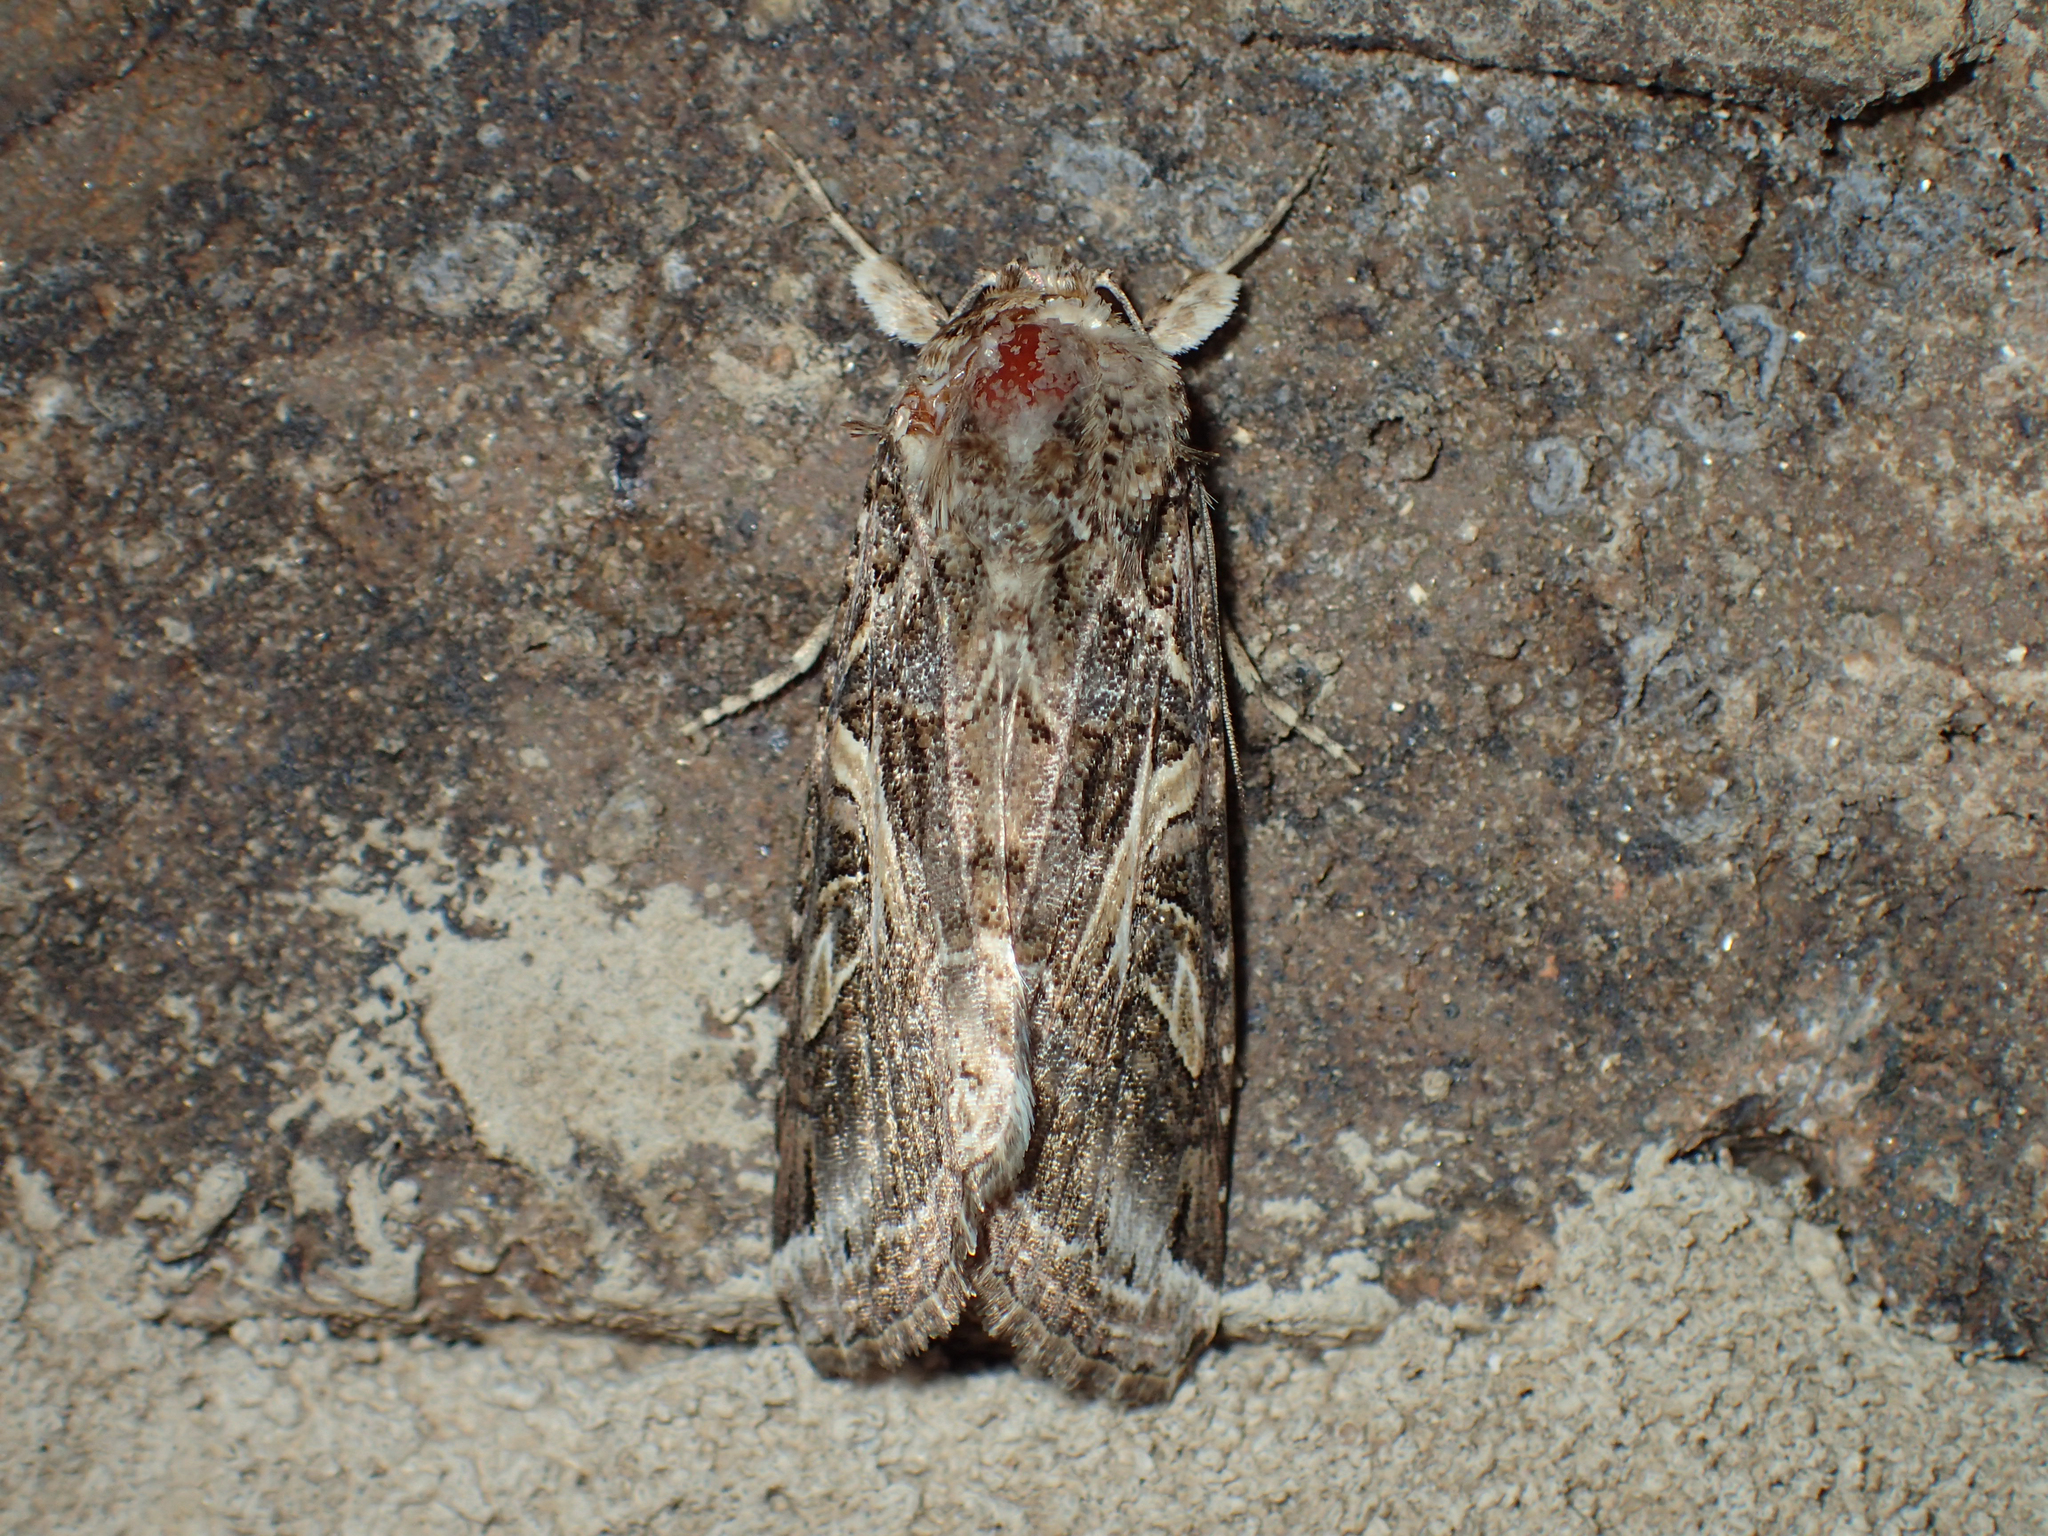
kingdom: Animalia
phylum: Arthropoda
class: Insecta
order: Lepidoptera
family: Noctuidae
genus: Spodoptera
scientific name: Spodoptera ornithogalli
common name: Yellow-striped armyworm
